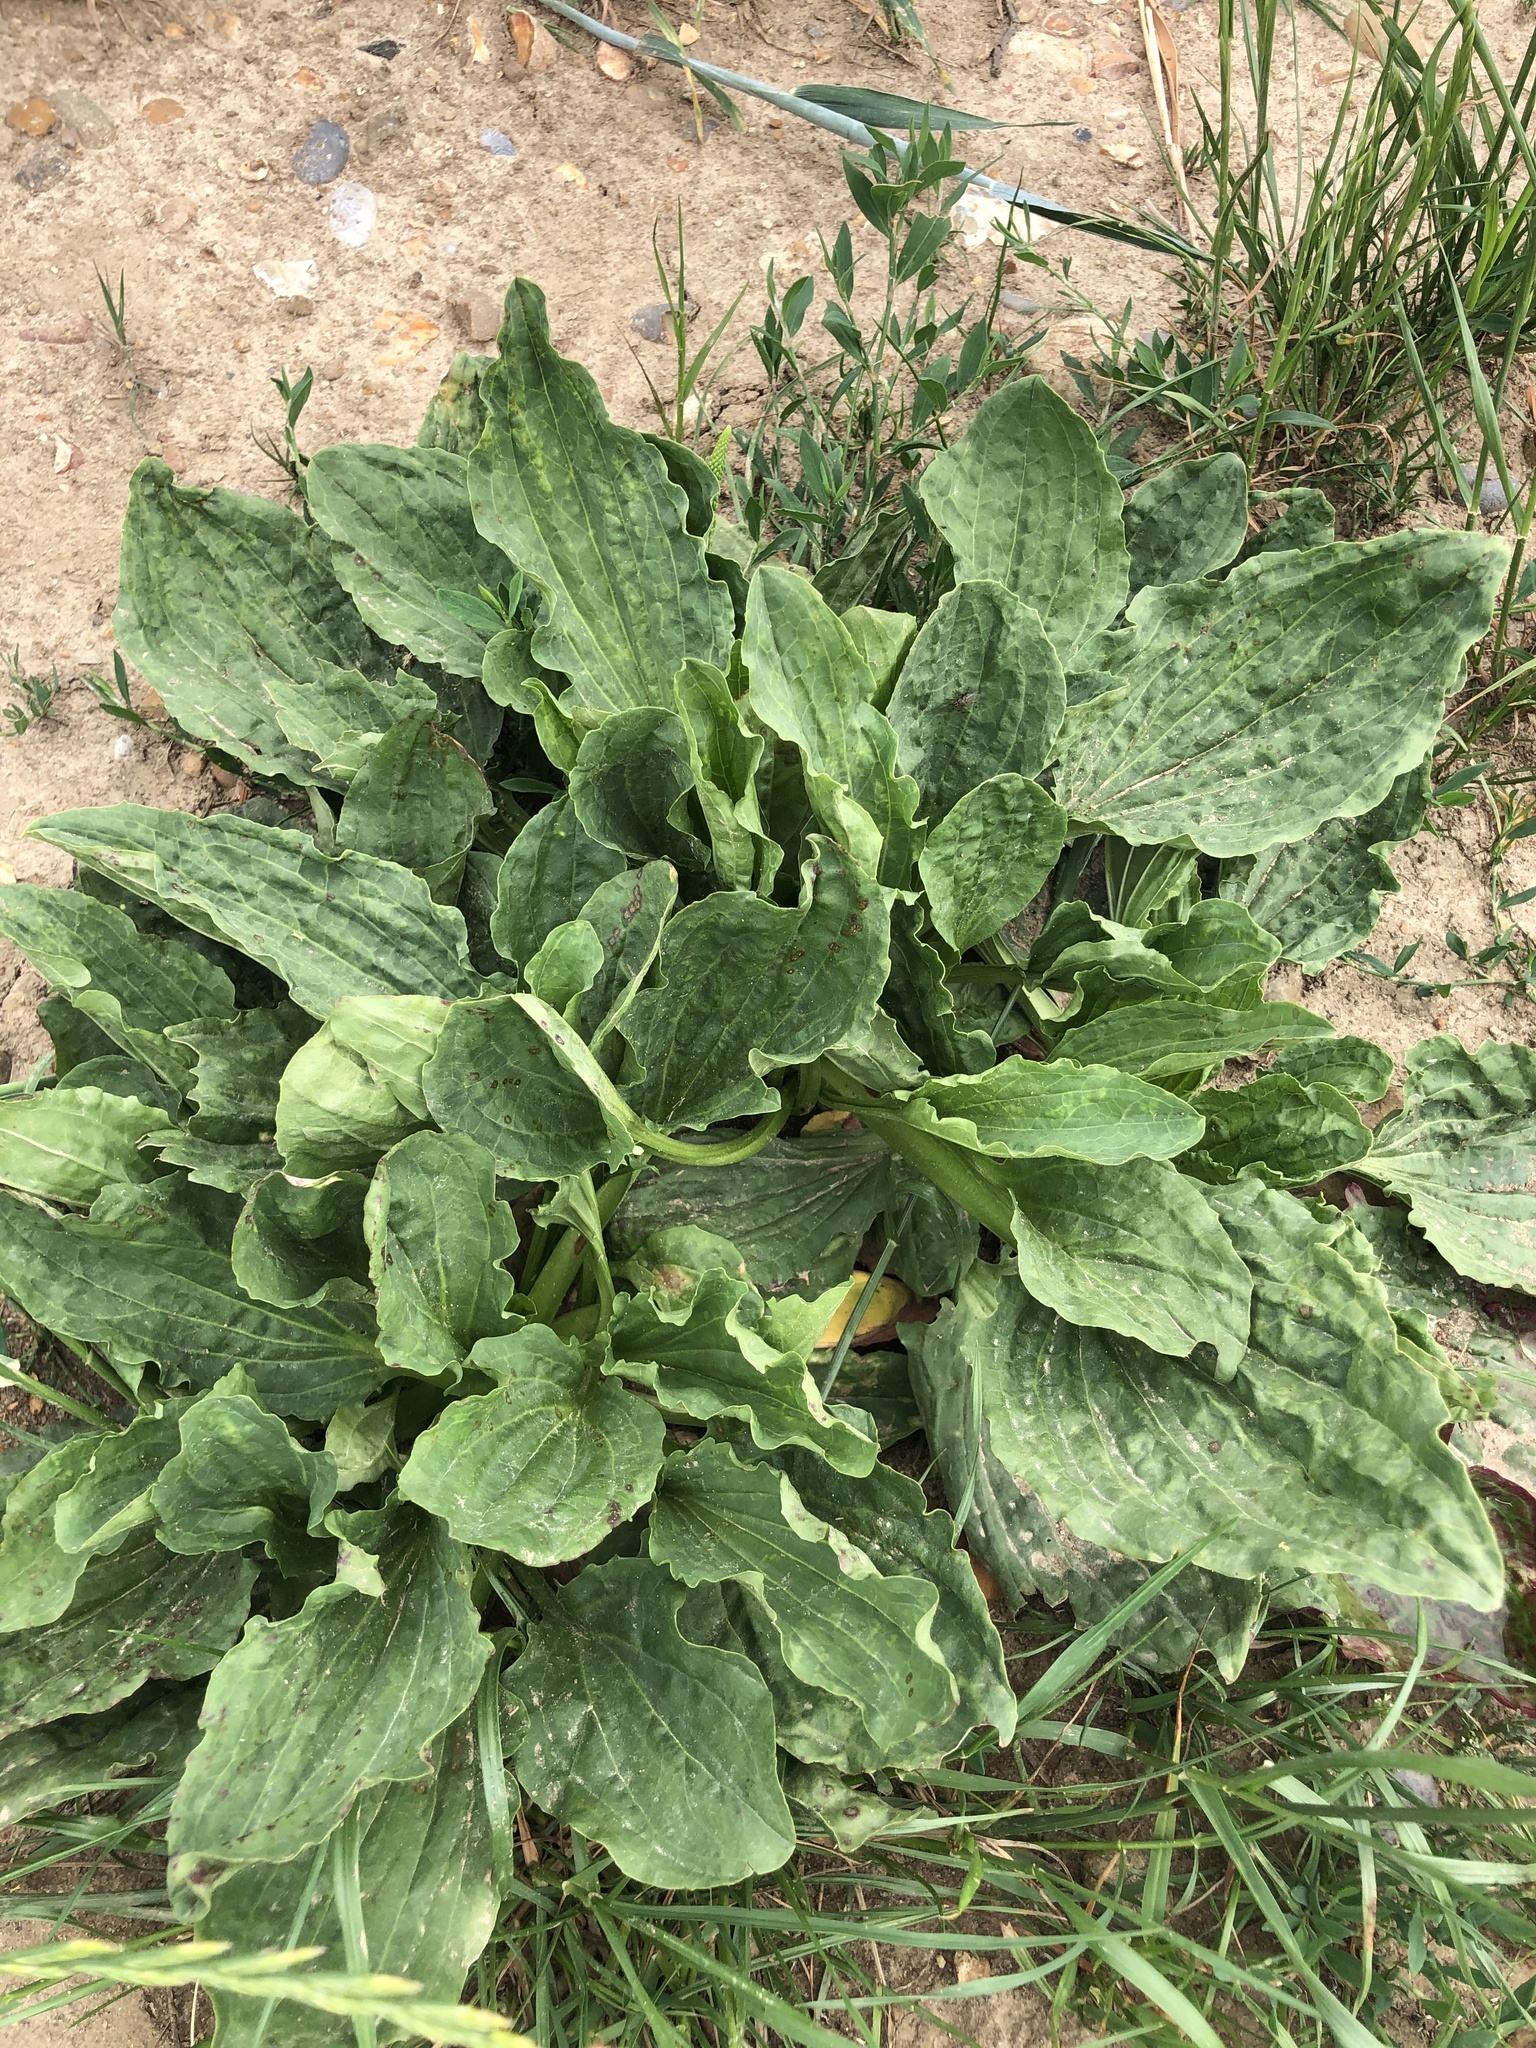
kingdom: Plantae
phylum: Tracheophyta
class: Magnoliopsida
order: Lamiales
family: Plantaginaceae
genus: Plantago
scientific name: Plantago major
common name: Common plantain
